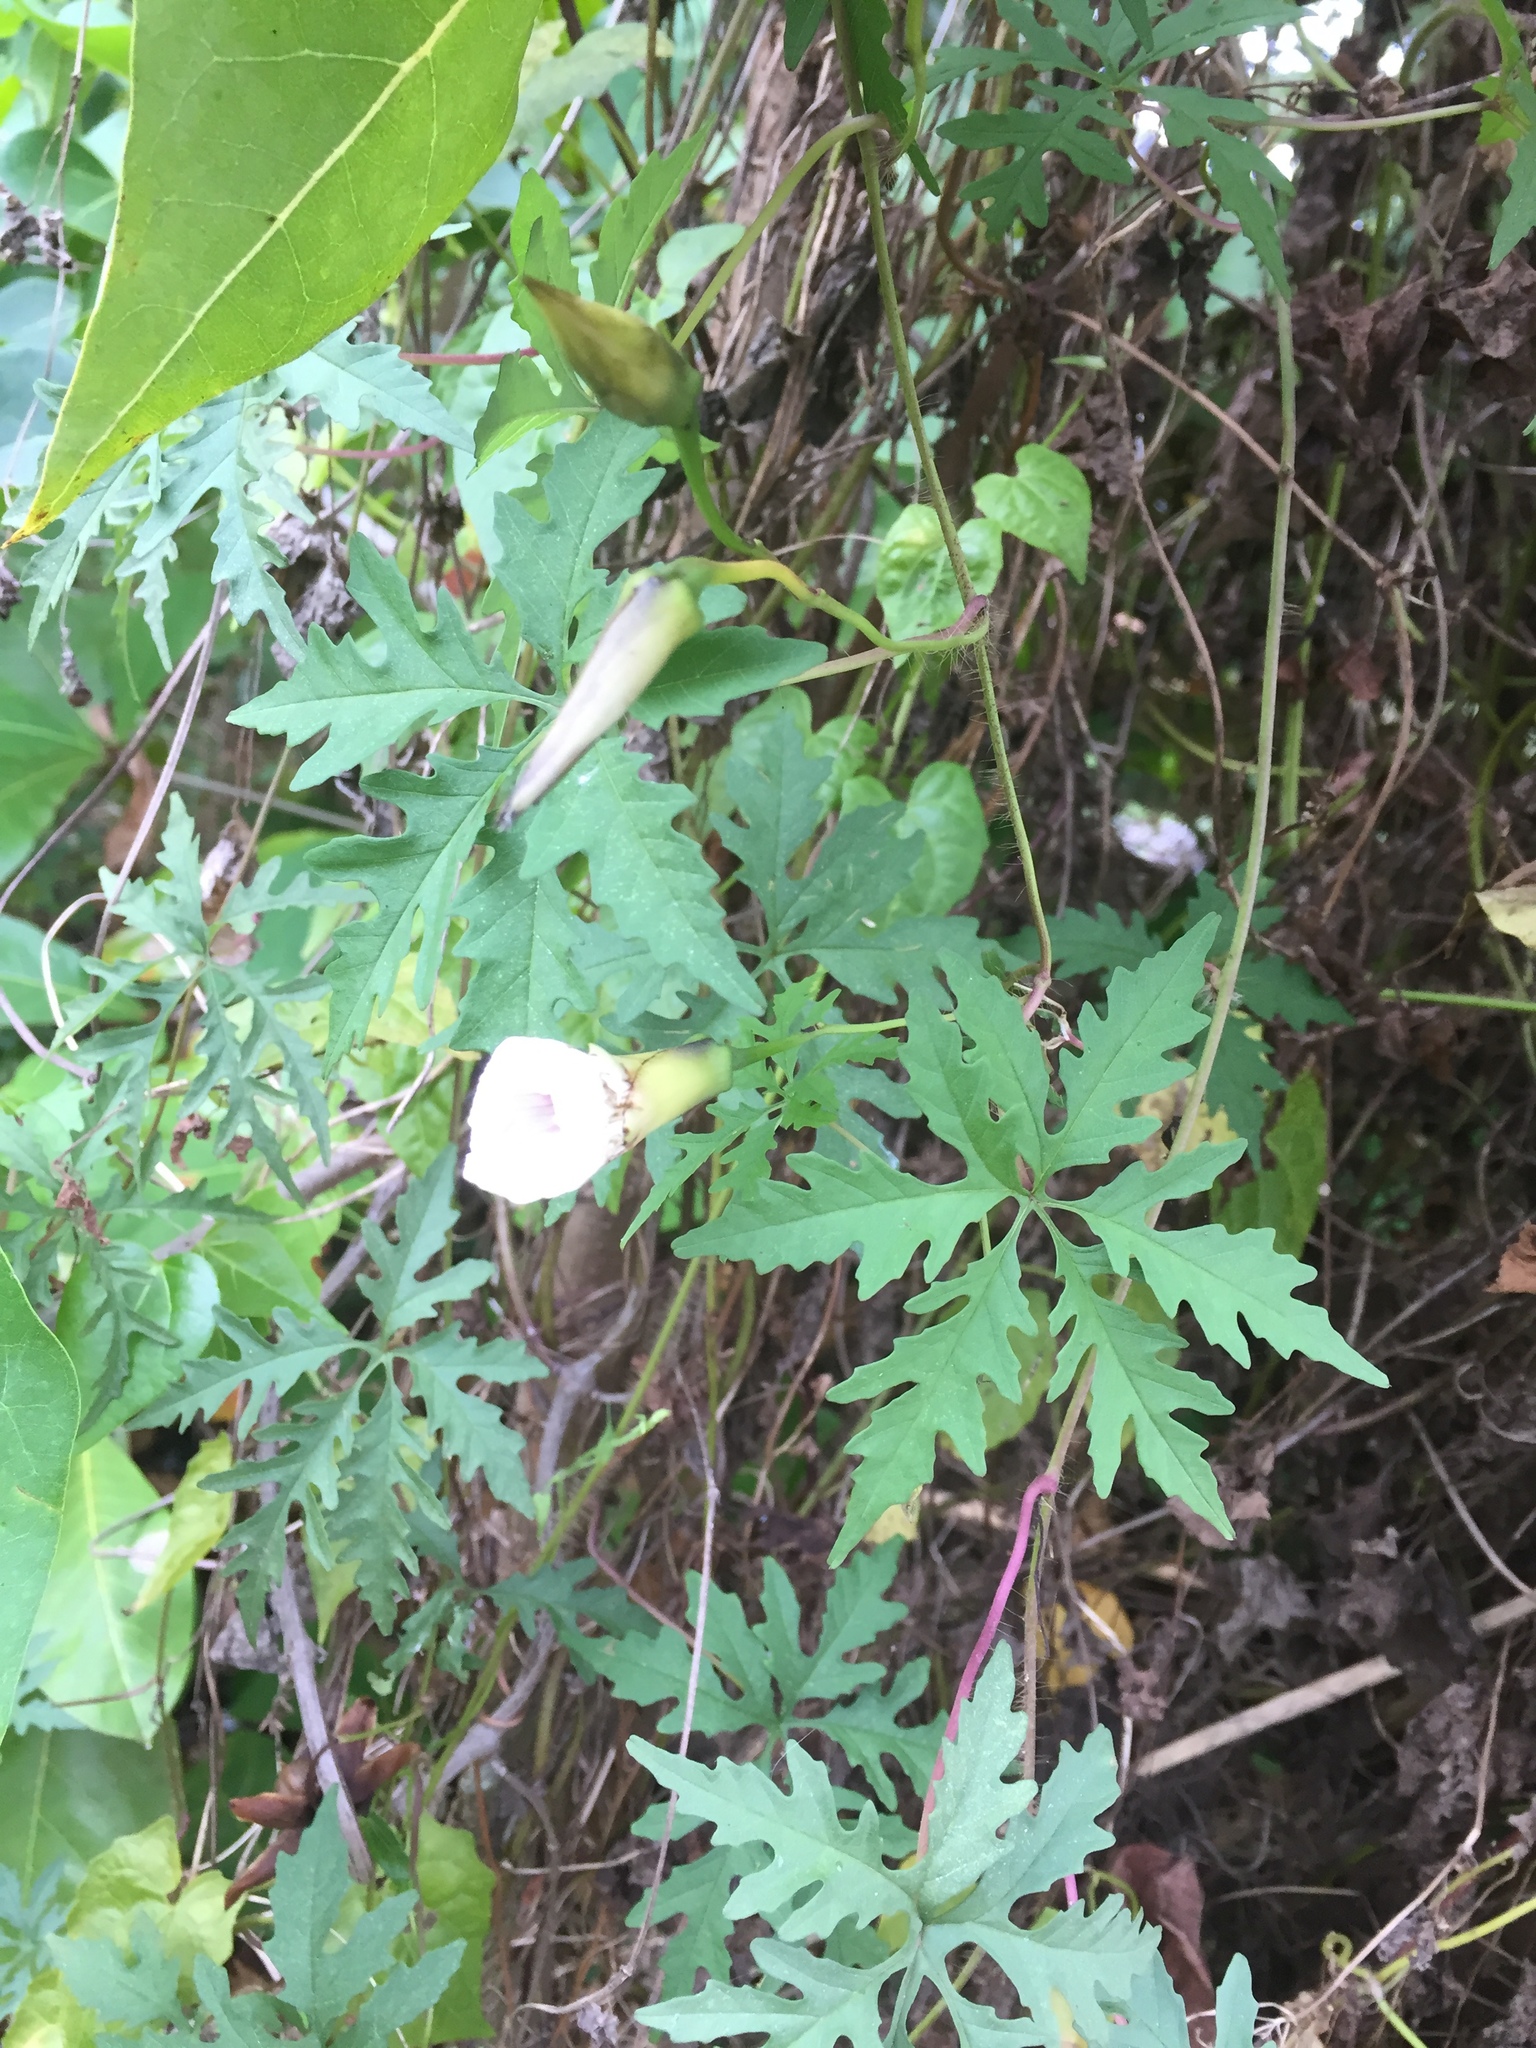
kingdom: Plantae
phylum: Tracheophyta
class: Magnoliopsida
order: Solanales
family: Convolvulaceae
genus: Distimake
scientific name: Distimake dissectus
